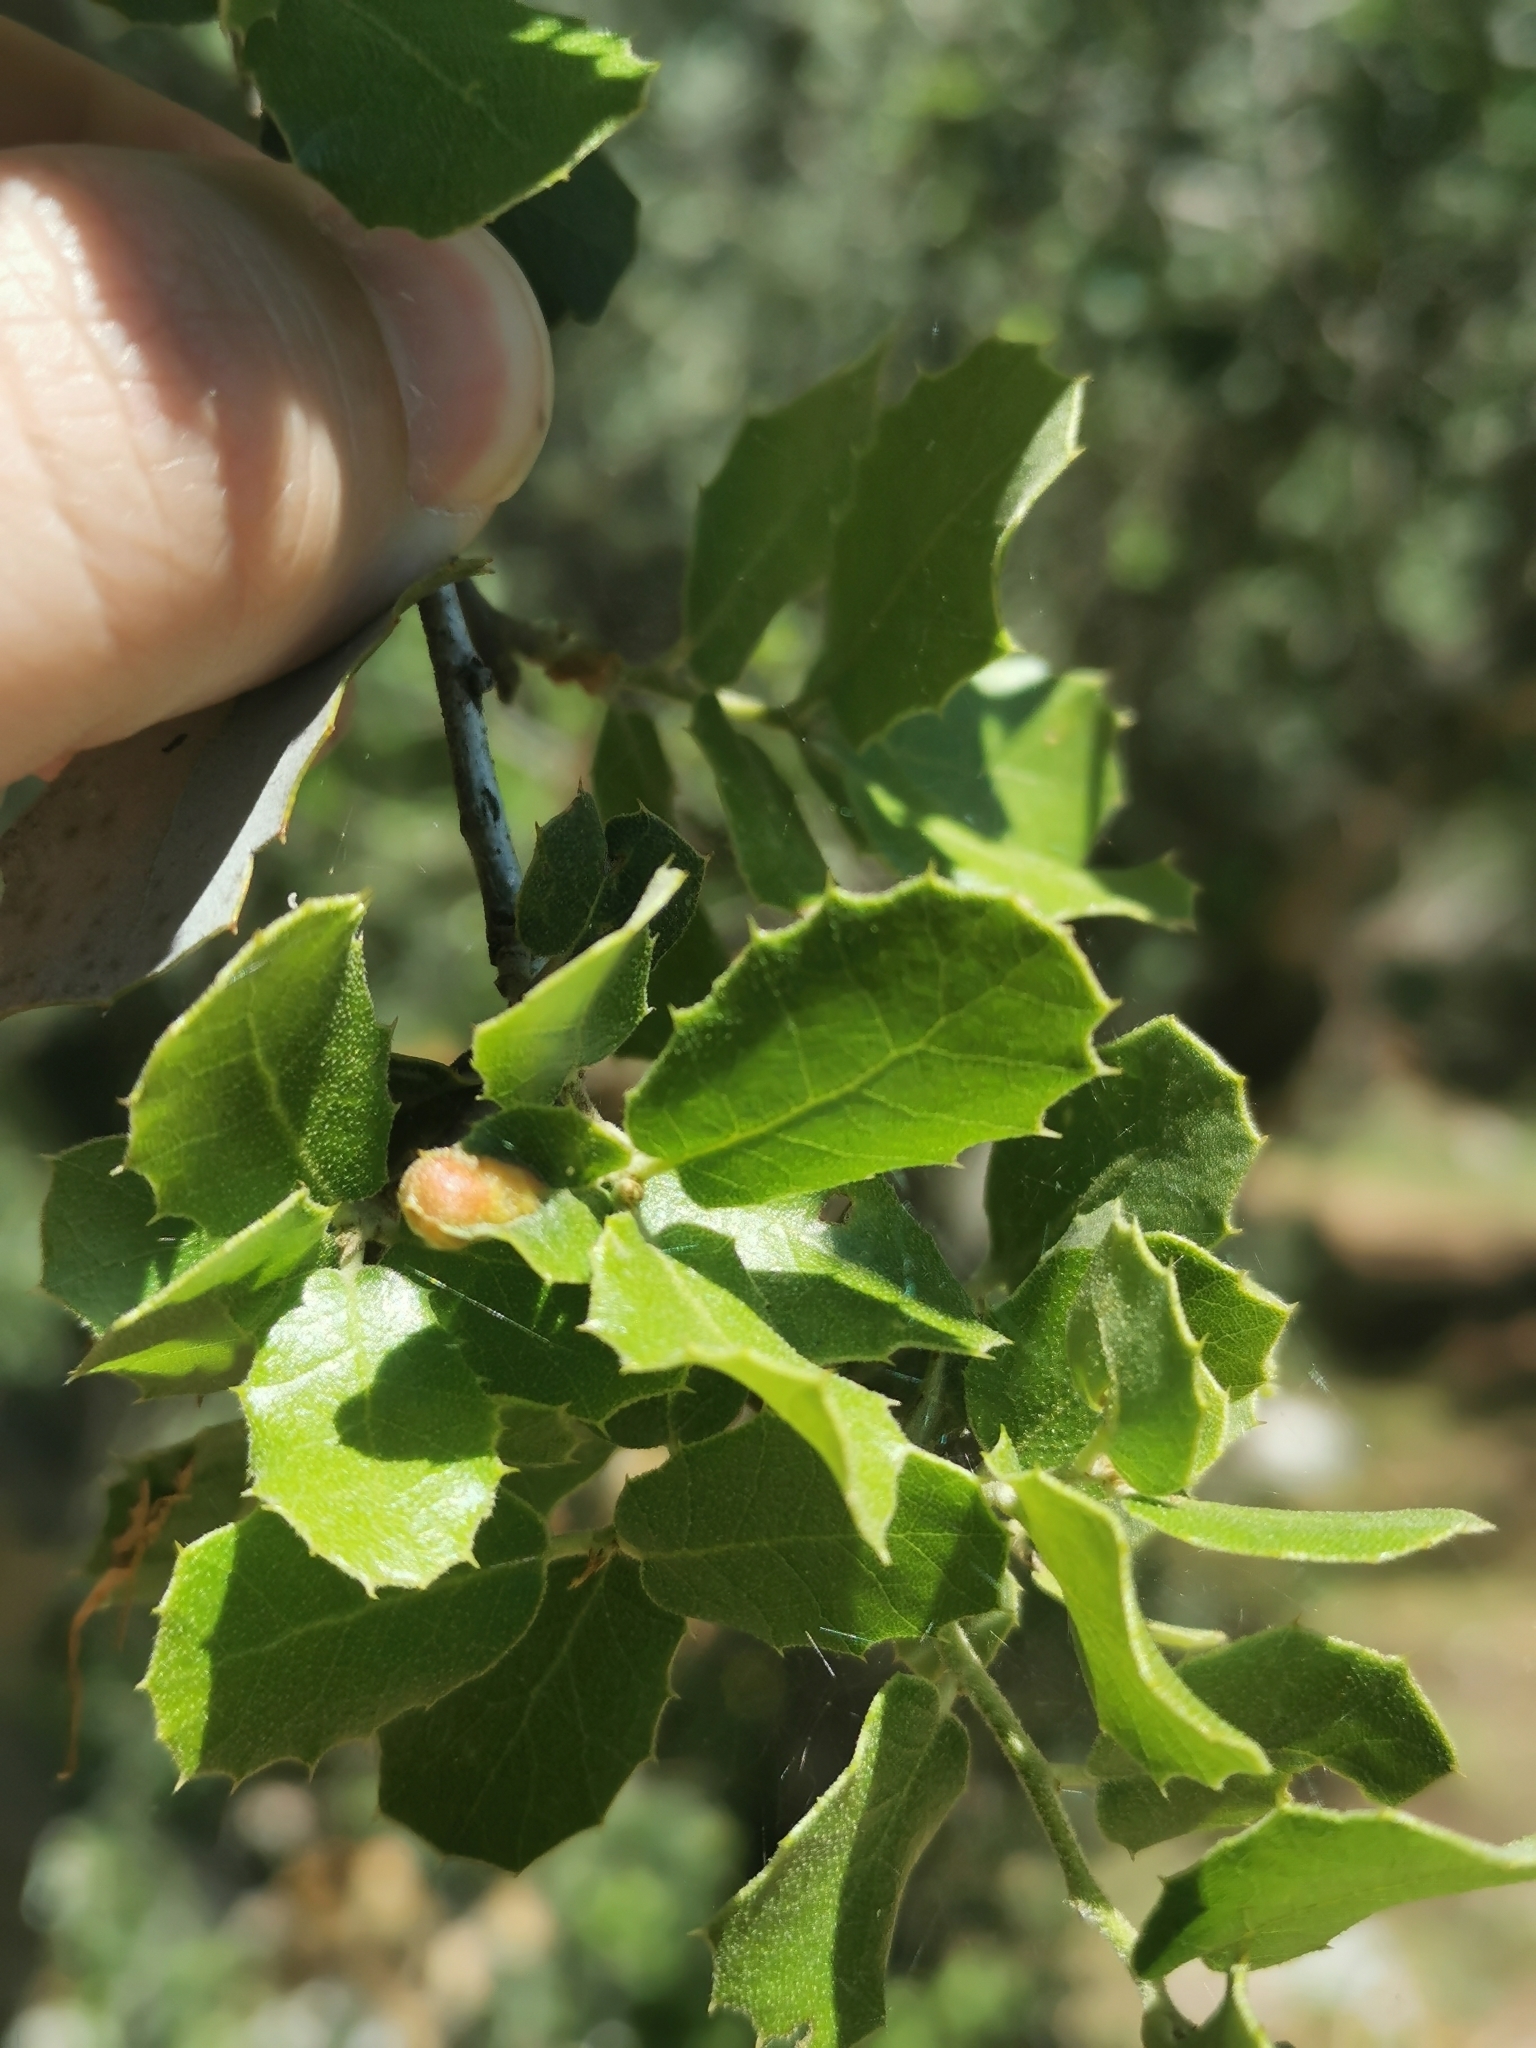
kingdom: Animalia
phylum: Arthropoda
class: Insecta
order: Hymenoptera
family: Cynipidae
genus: Plagiotrochus
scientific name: Plagiotrochus quercusilicis
